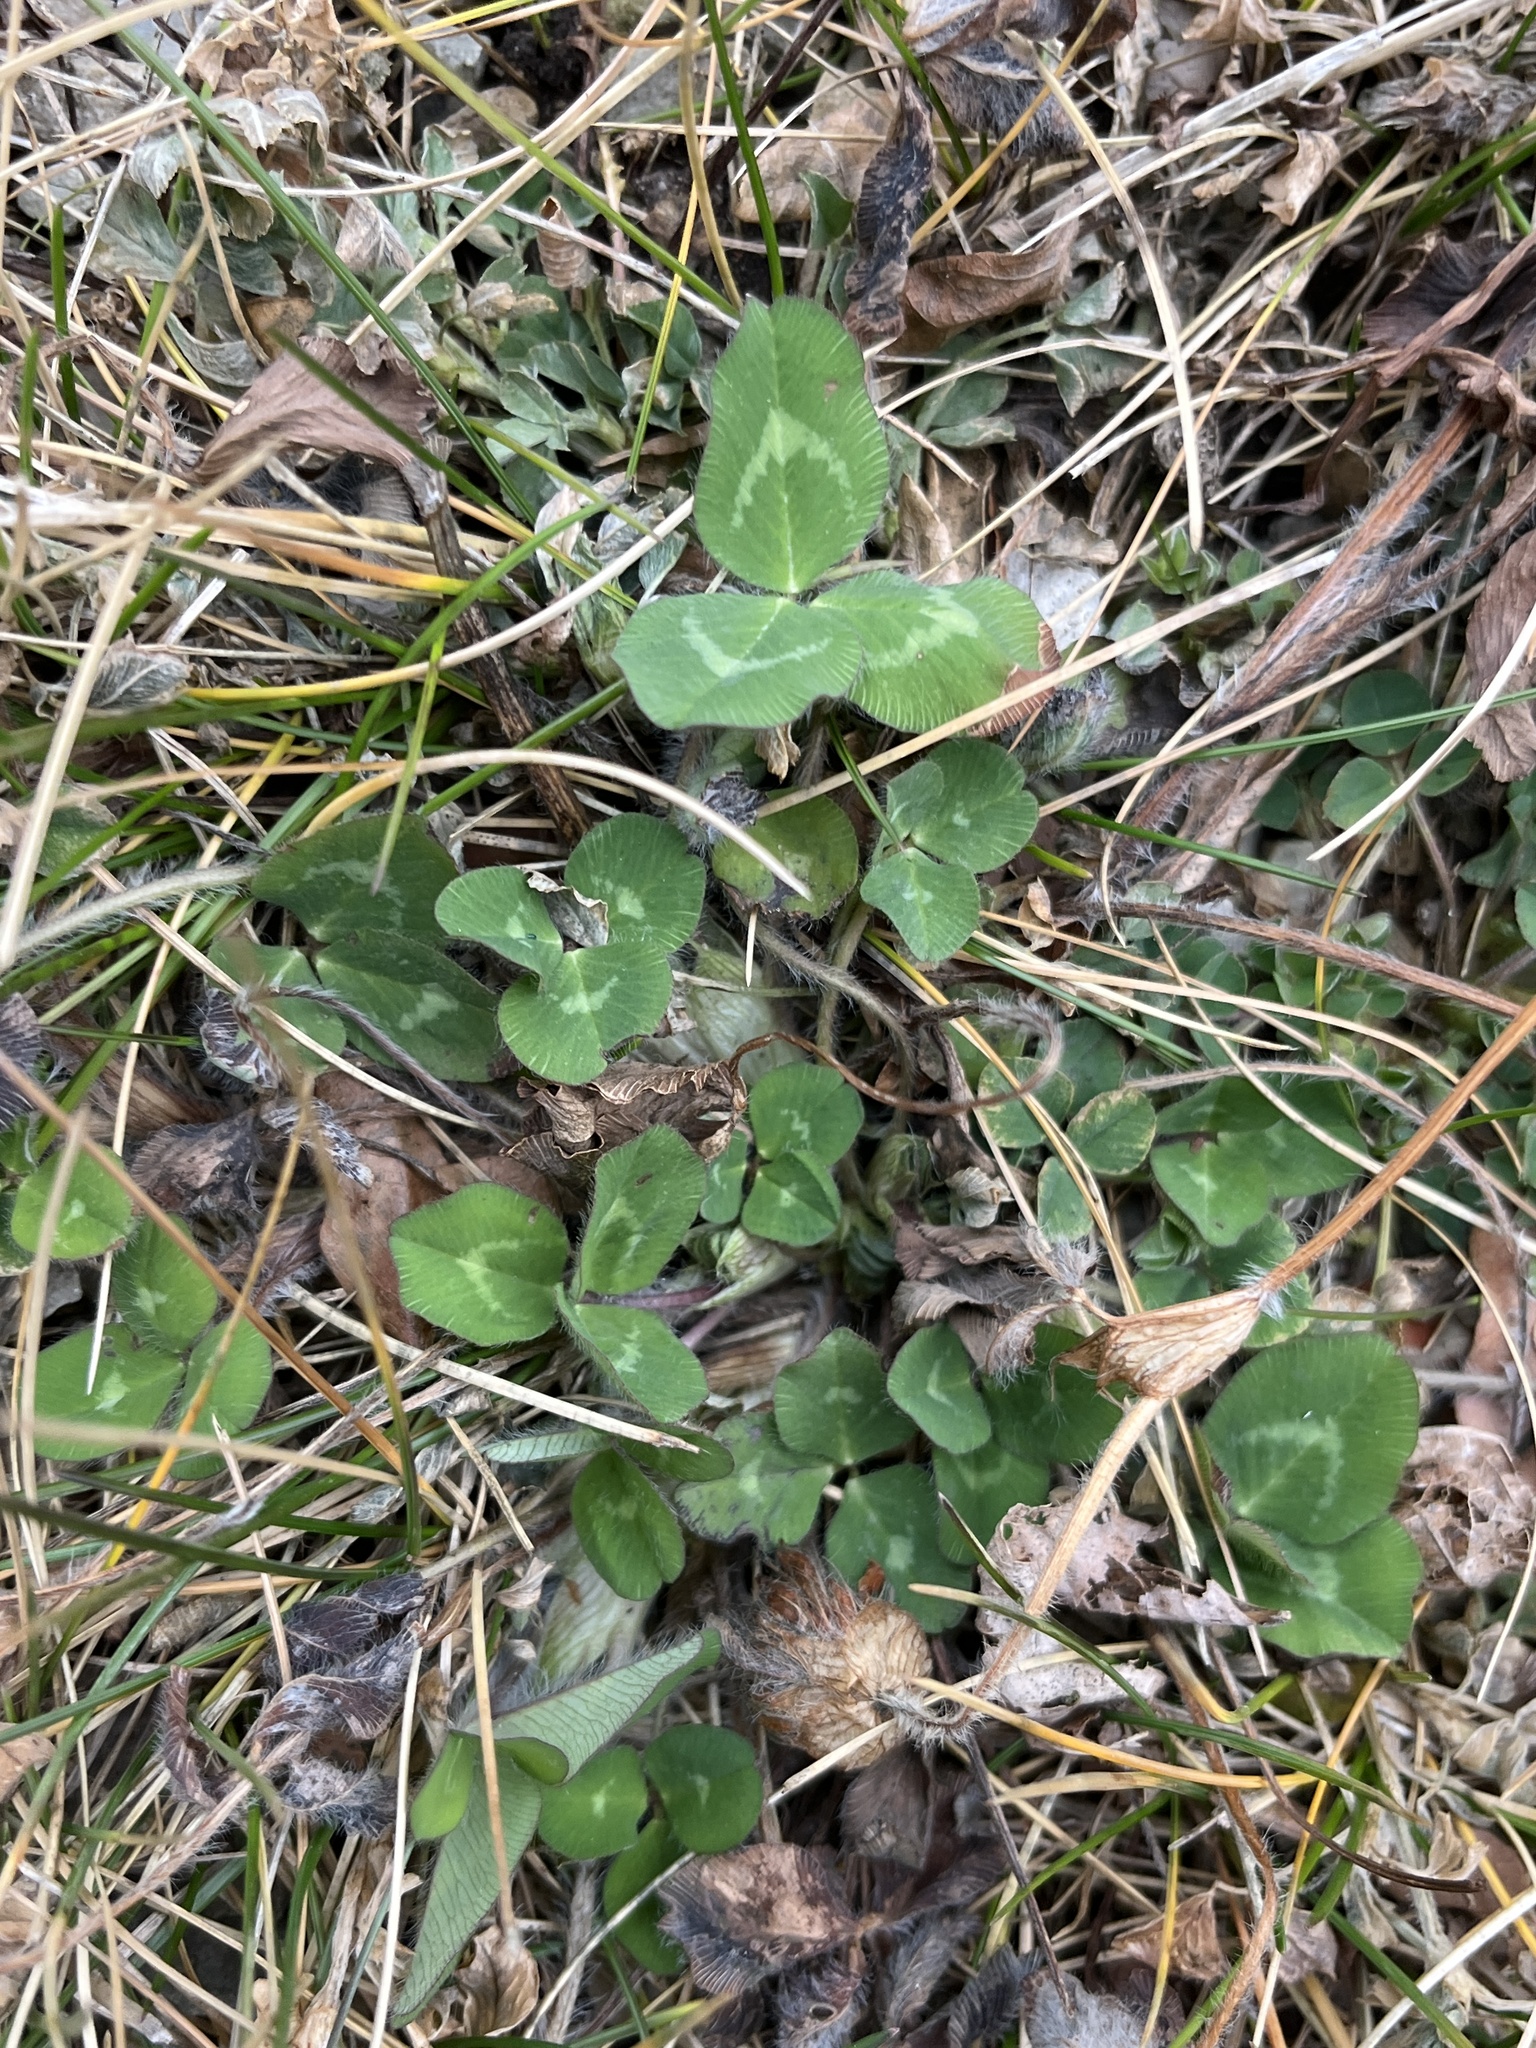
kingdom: Plantae
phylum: Tracheophyta
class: Magnoliopsida
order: Fabales
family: Fabaceae
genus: Trifolium
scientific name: Trifolium pratense
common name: Red clover
